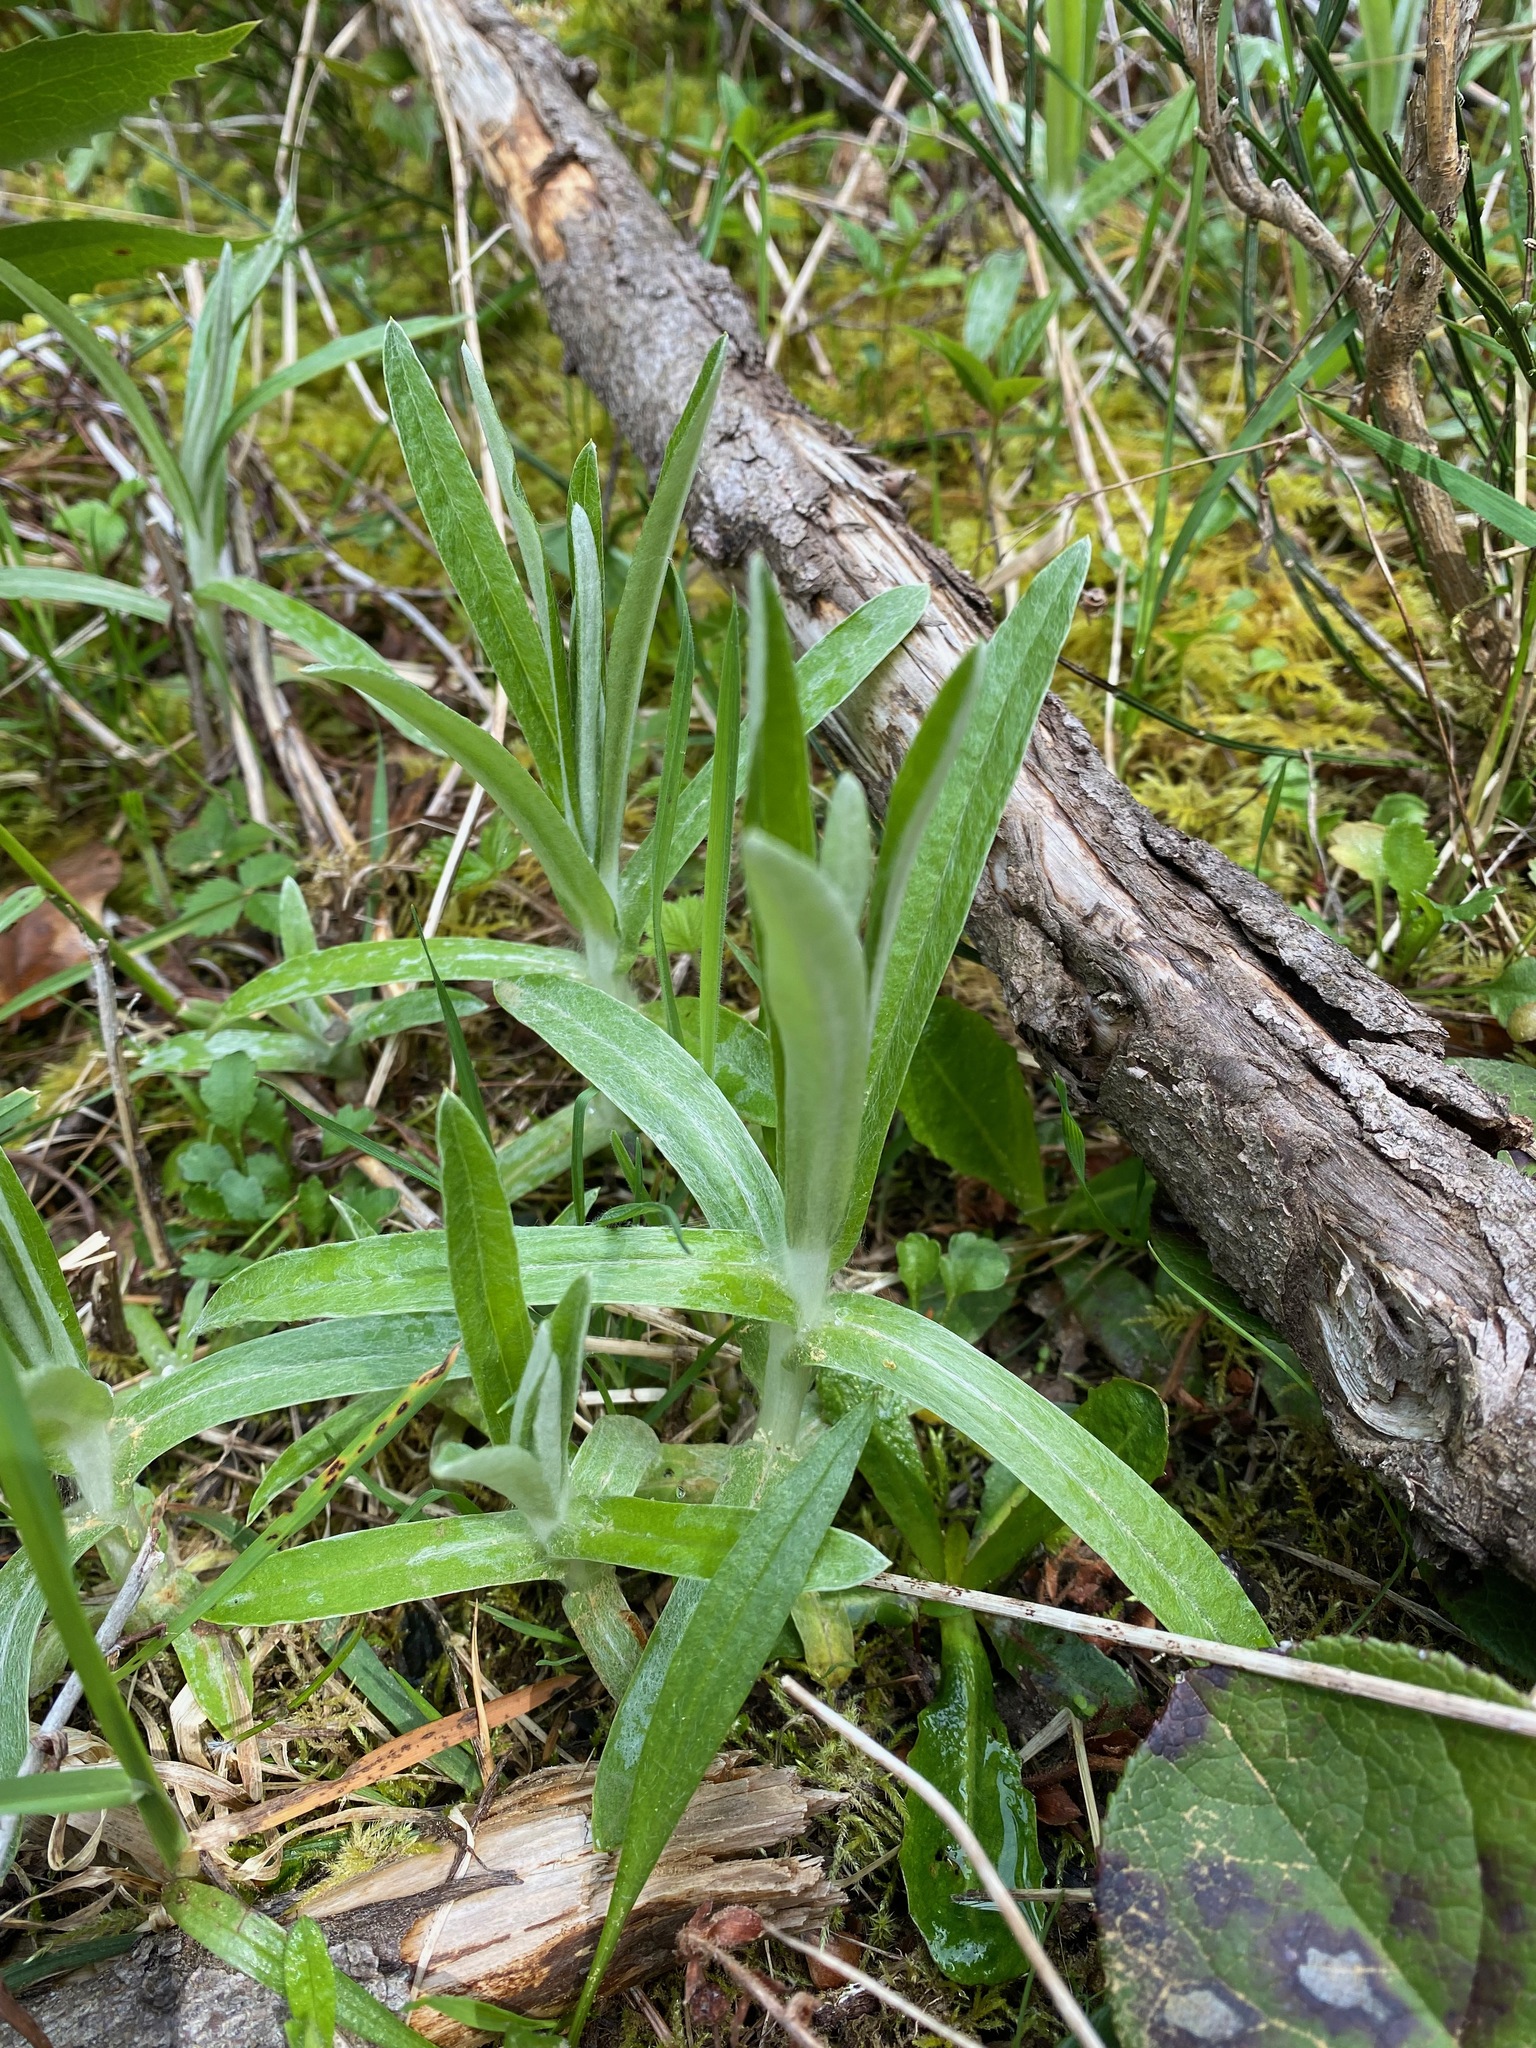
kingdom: Plantae
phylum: Tracheophyta
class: Magnoliopsida
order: Asterales
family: Asteraceae
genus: Anaphalis
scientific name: Anaphalis margaritacea
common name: Pearly everlasting
